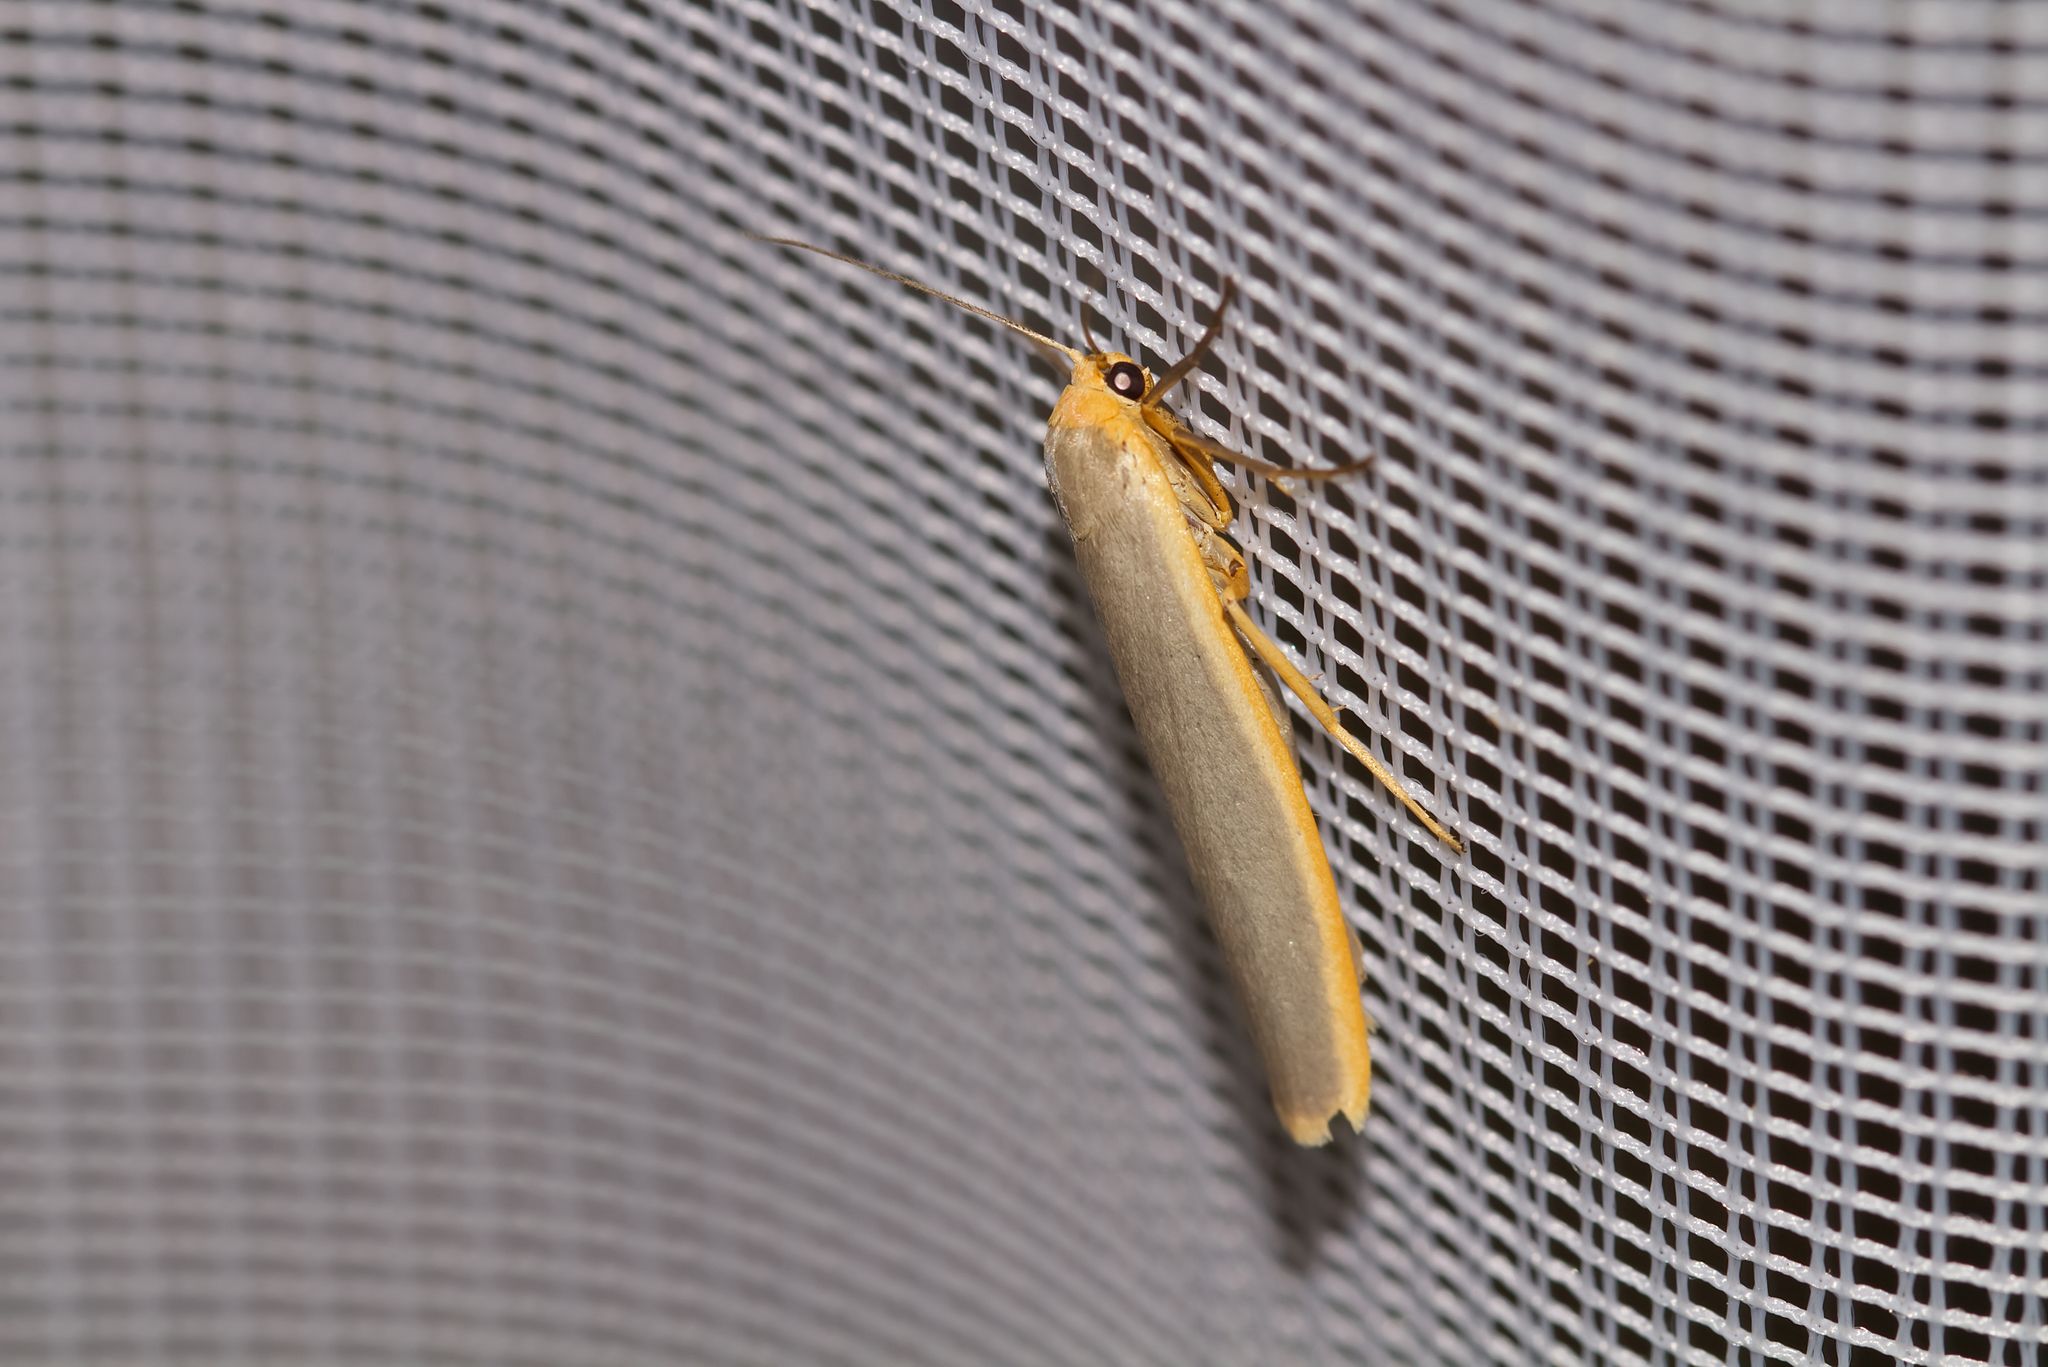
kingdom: Animalia
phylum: Arthropoda
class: Insecta
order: Lepidoptera
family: Erebidae
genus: Nyea
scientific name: Nyea lurideola
